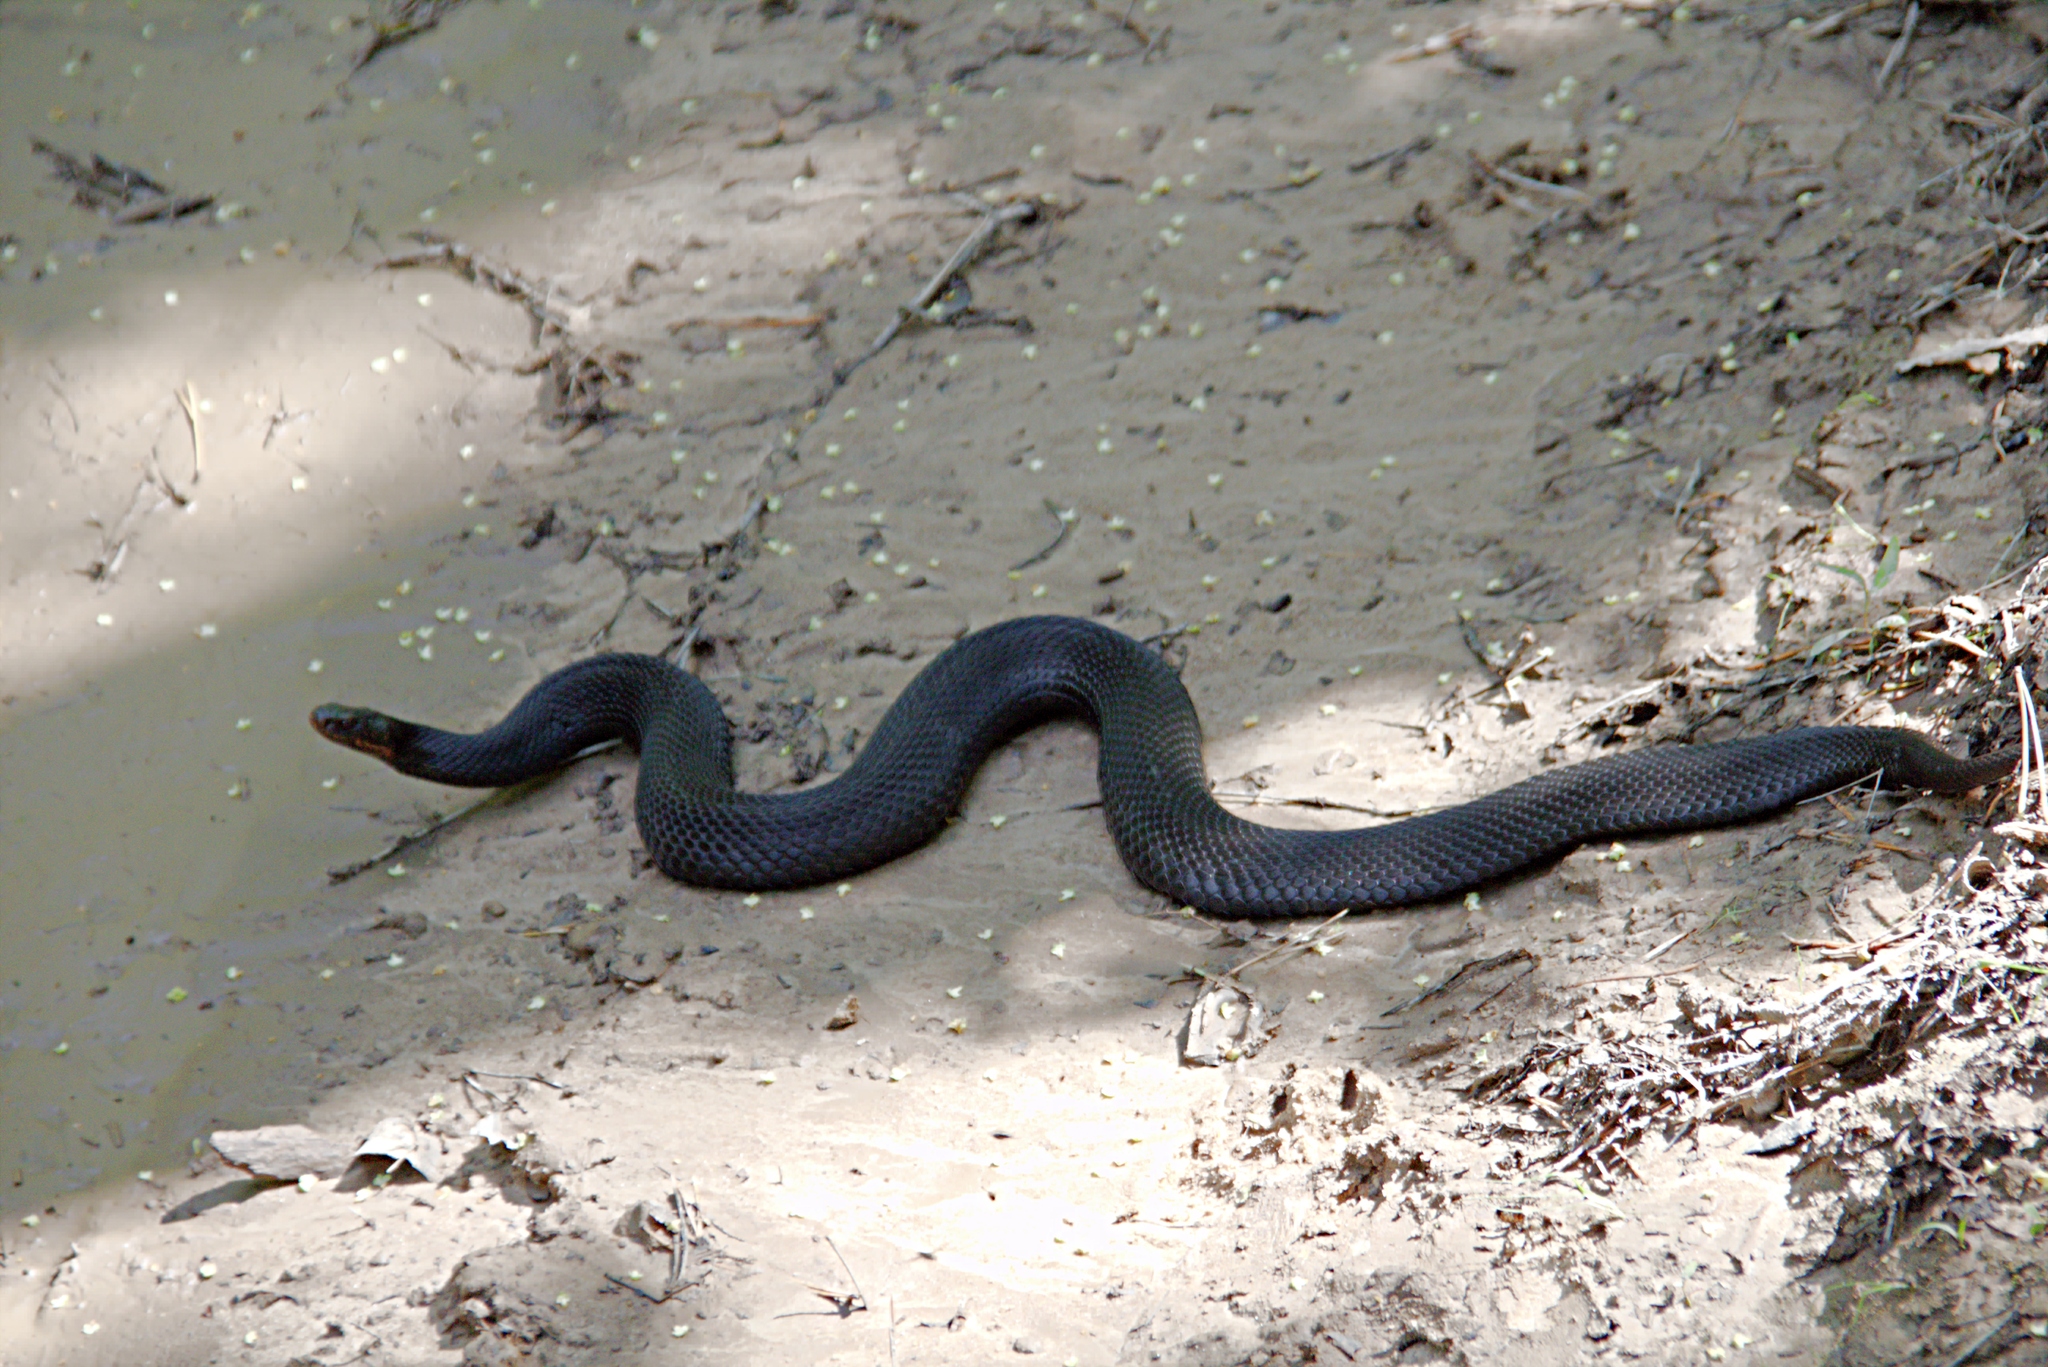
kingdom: Animalia
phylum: Chordata
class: Squamata
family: Viperidae
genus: Vipera
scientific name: Vipera berus
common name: Adder
